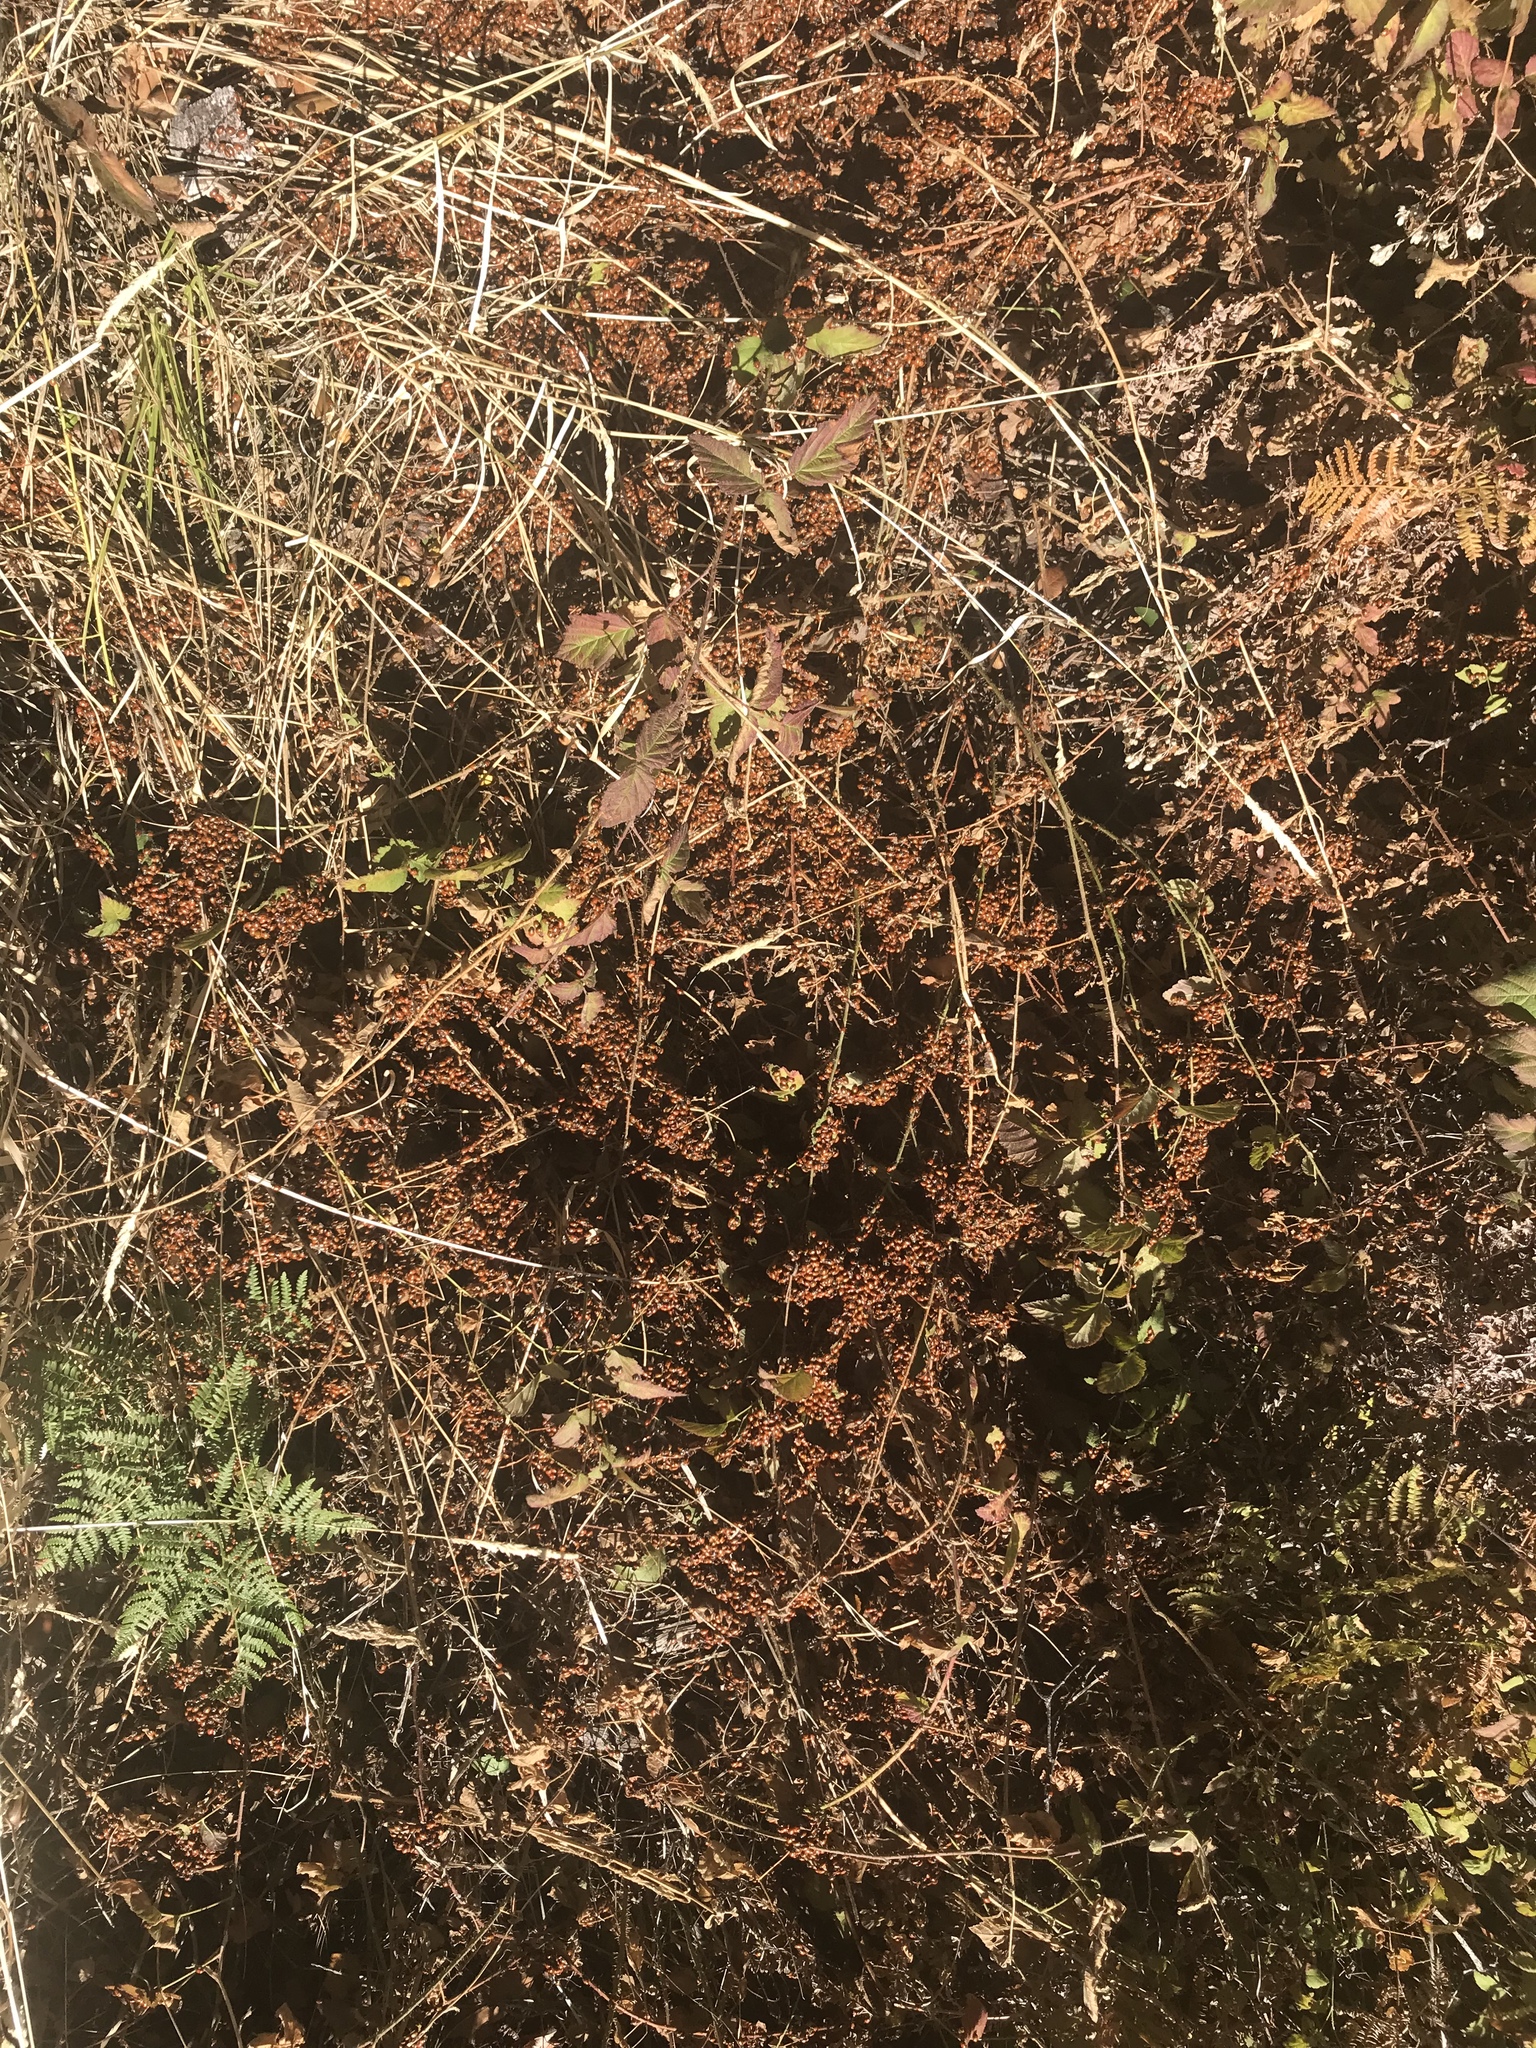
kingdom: Animalia
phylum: Arthropoda
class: Insecta
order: Coleoptera
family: Coccinellidae
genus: Hippodamia
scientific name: Hippodamia convergens
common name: Convergent lady beetle
